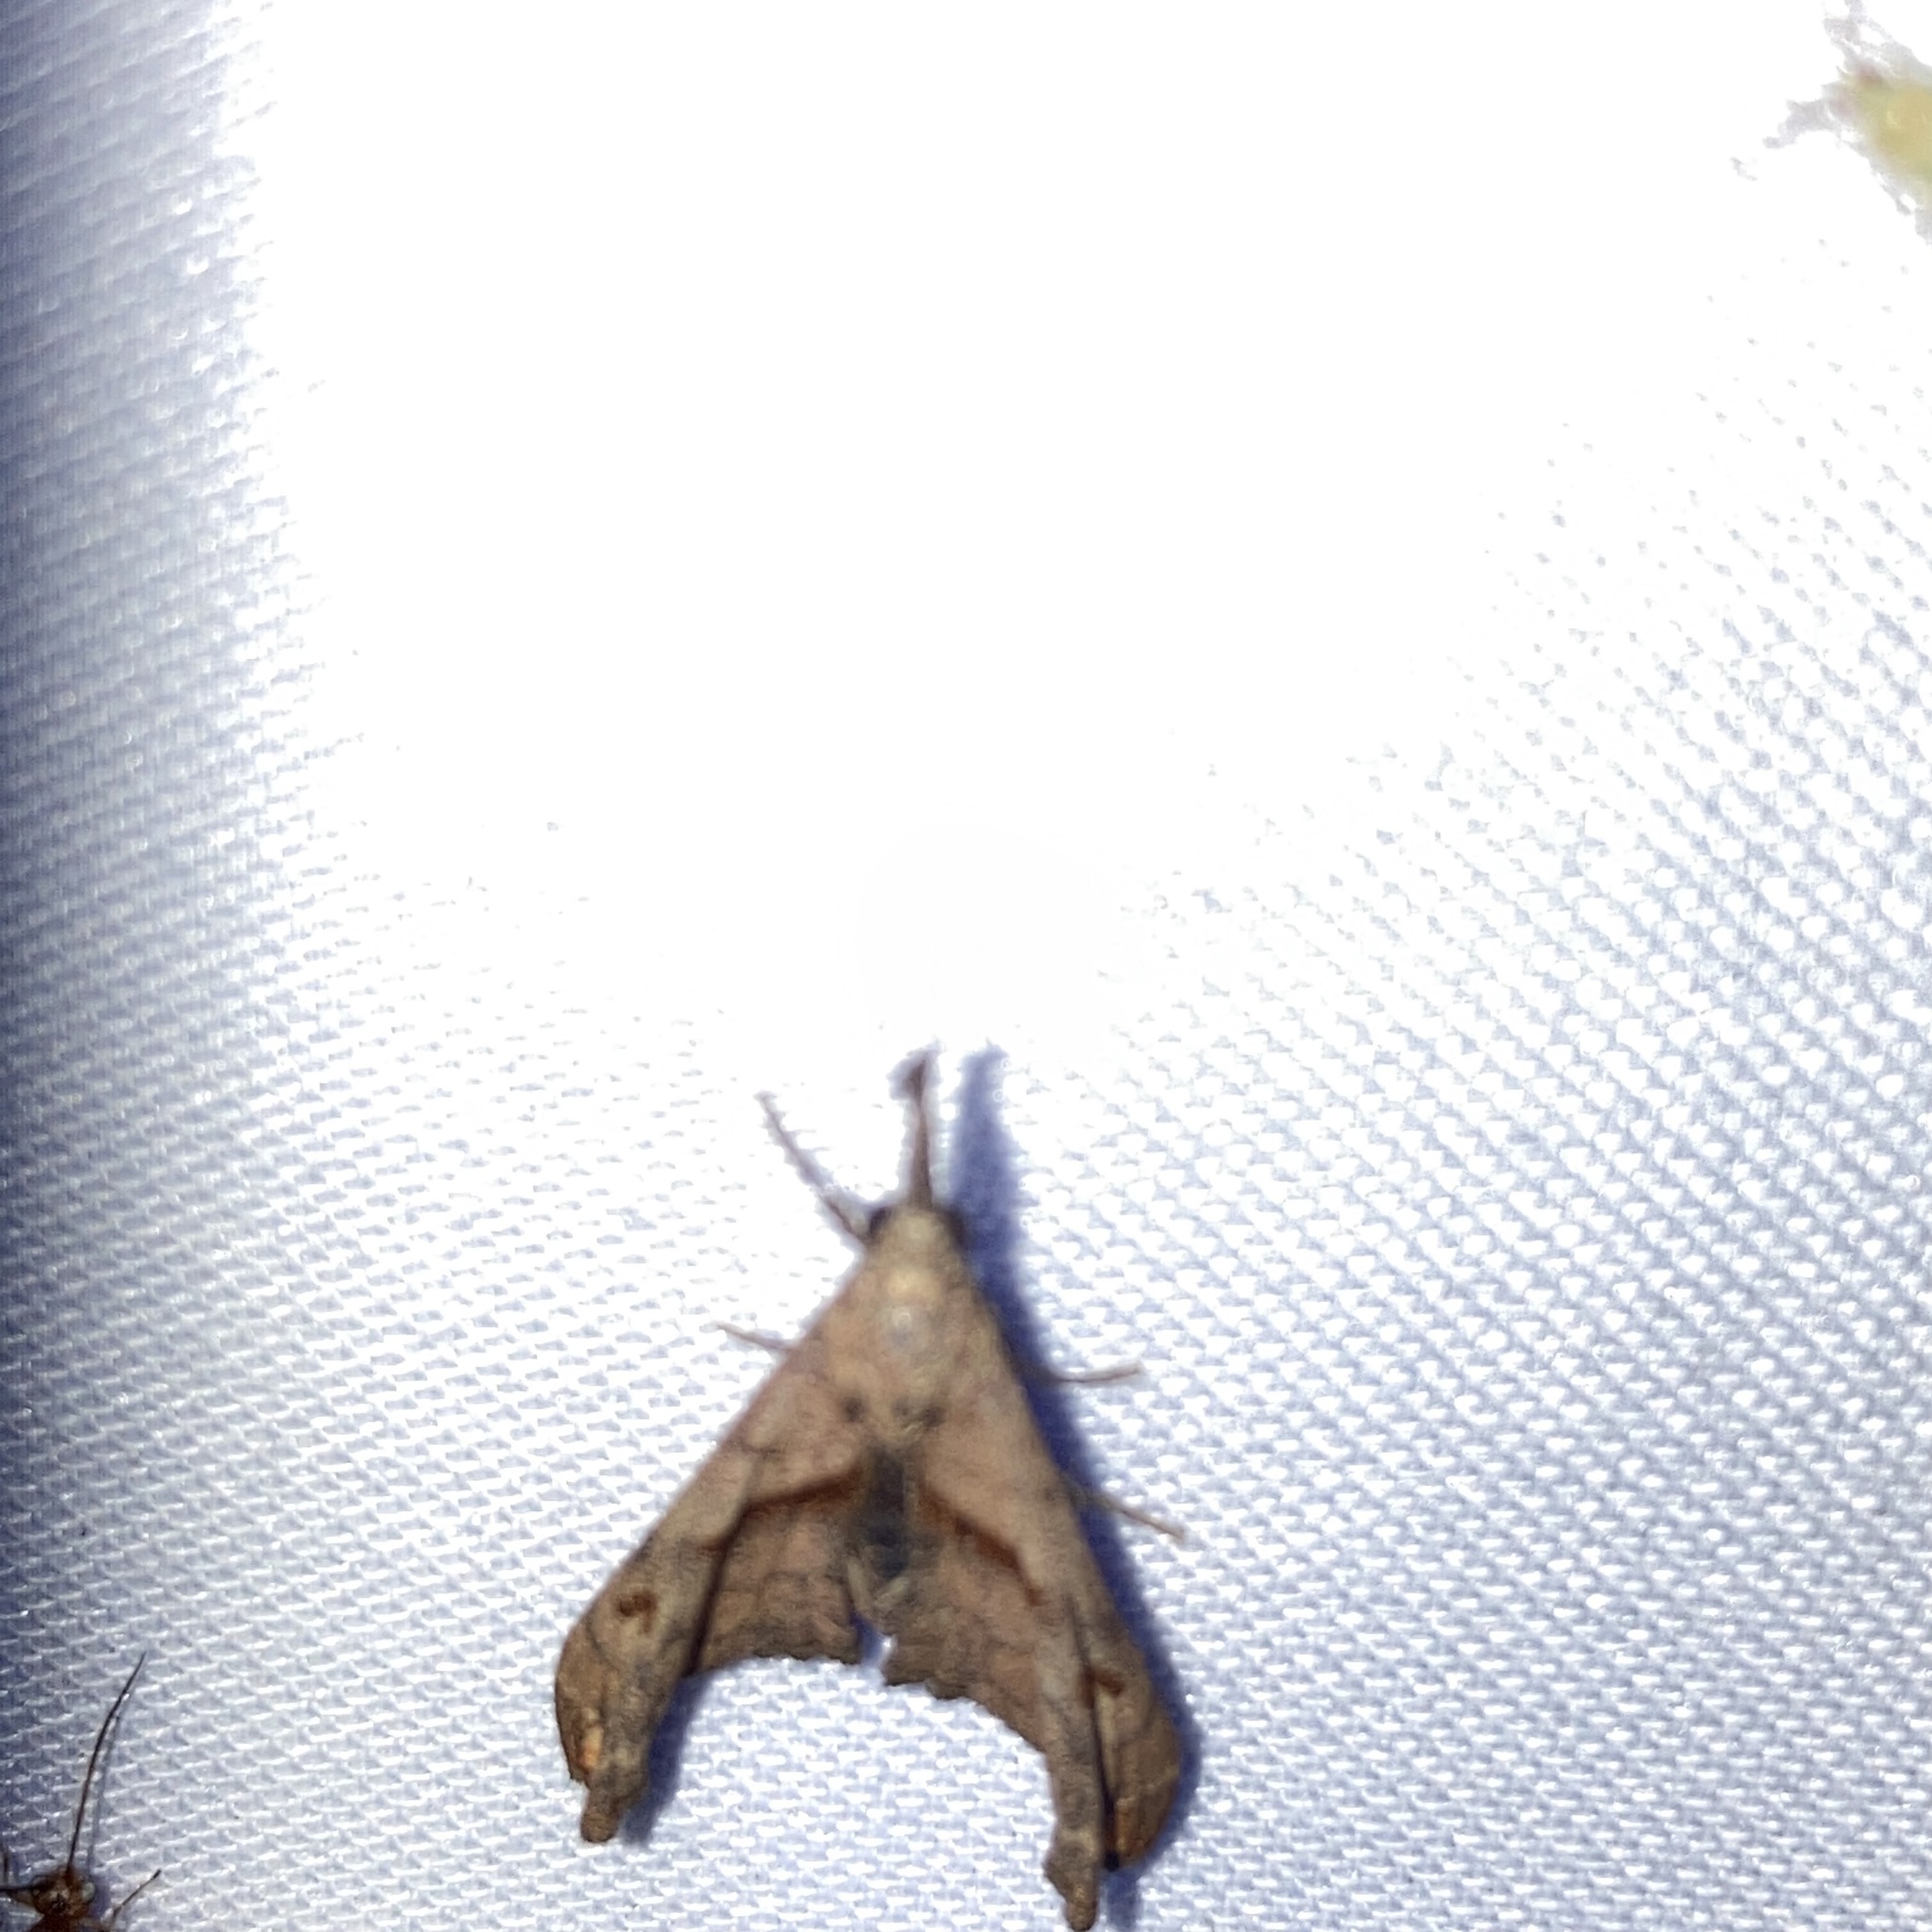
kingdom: Animalia
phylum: Arthropoda
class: Insecta
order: Lepidoptera
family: Erebidae
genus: Palthis
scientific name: Palthis angulalis
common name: Dark-spotted palthis moth
